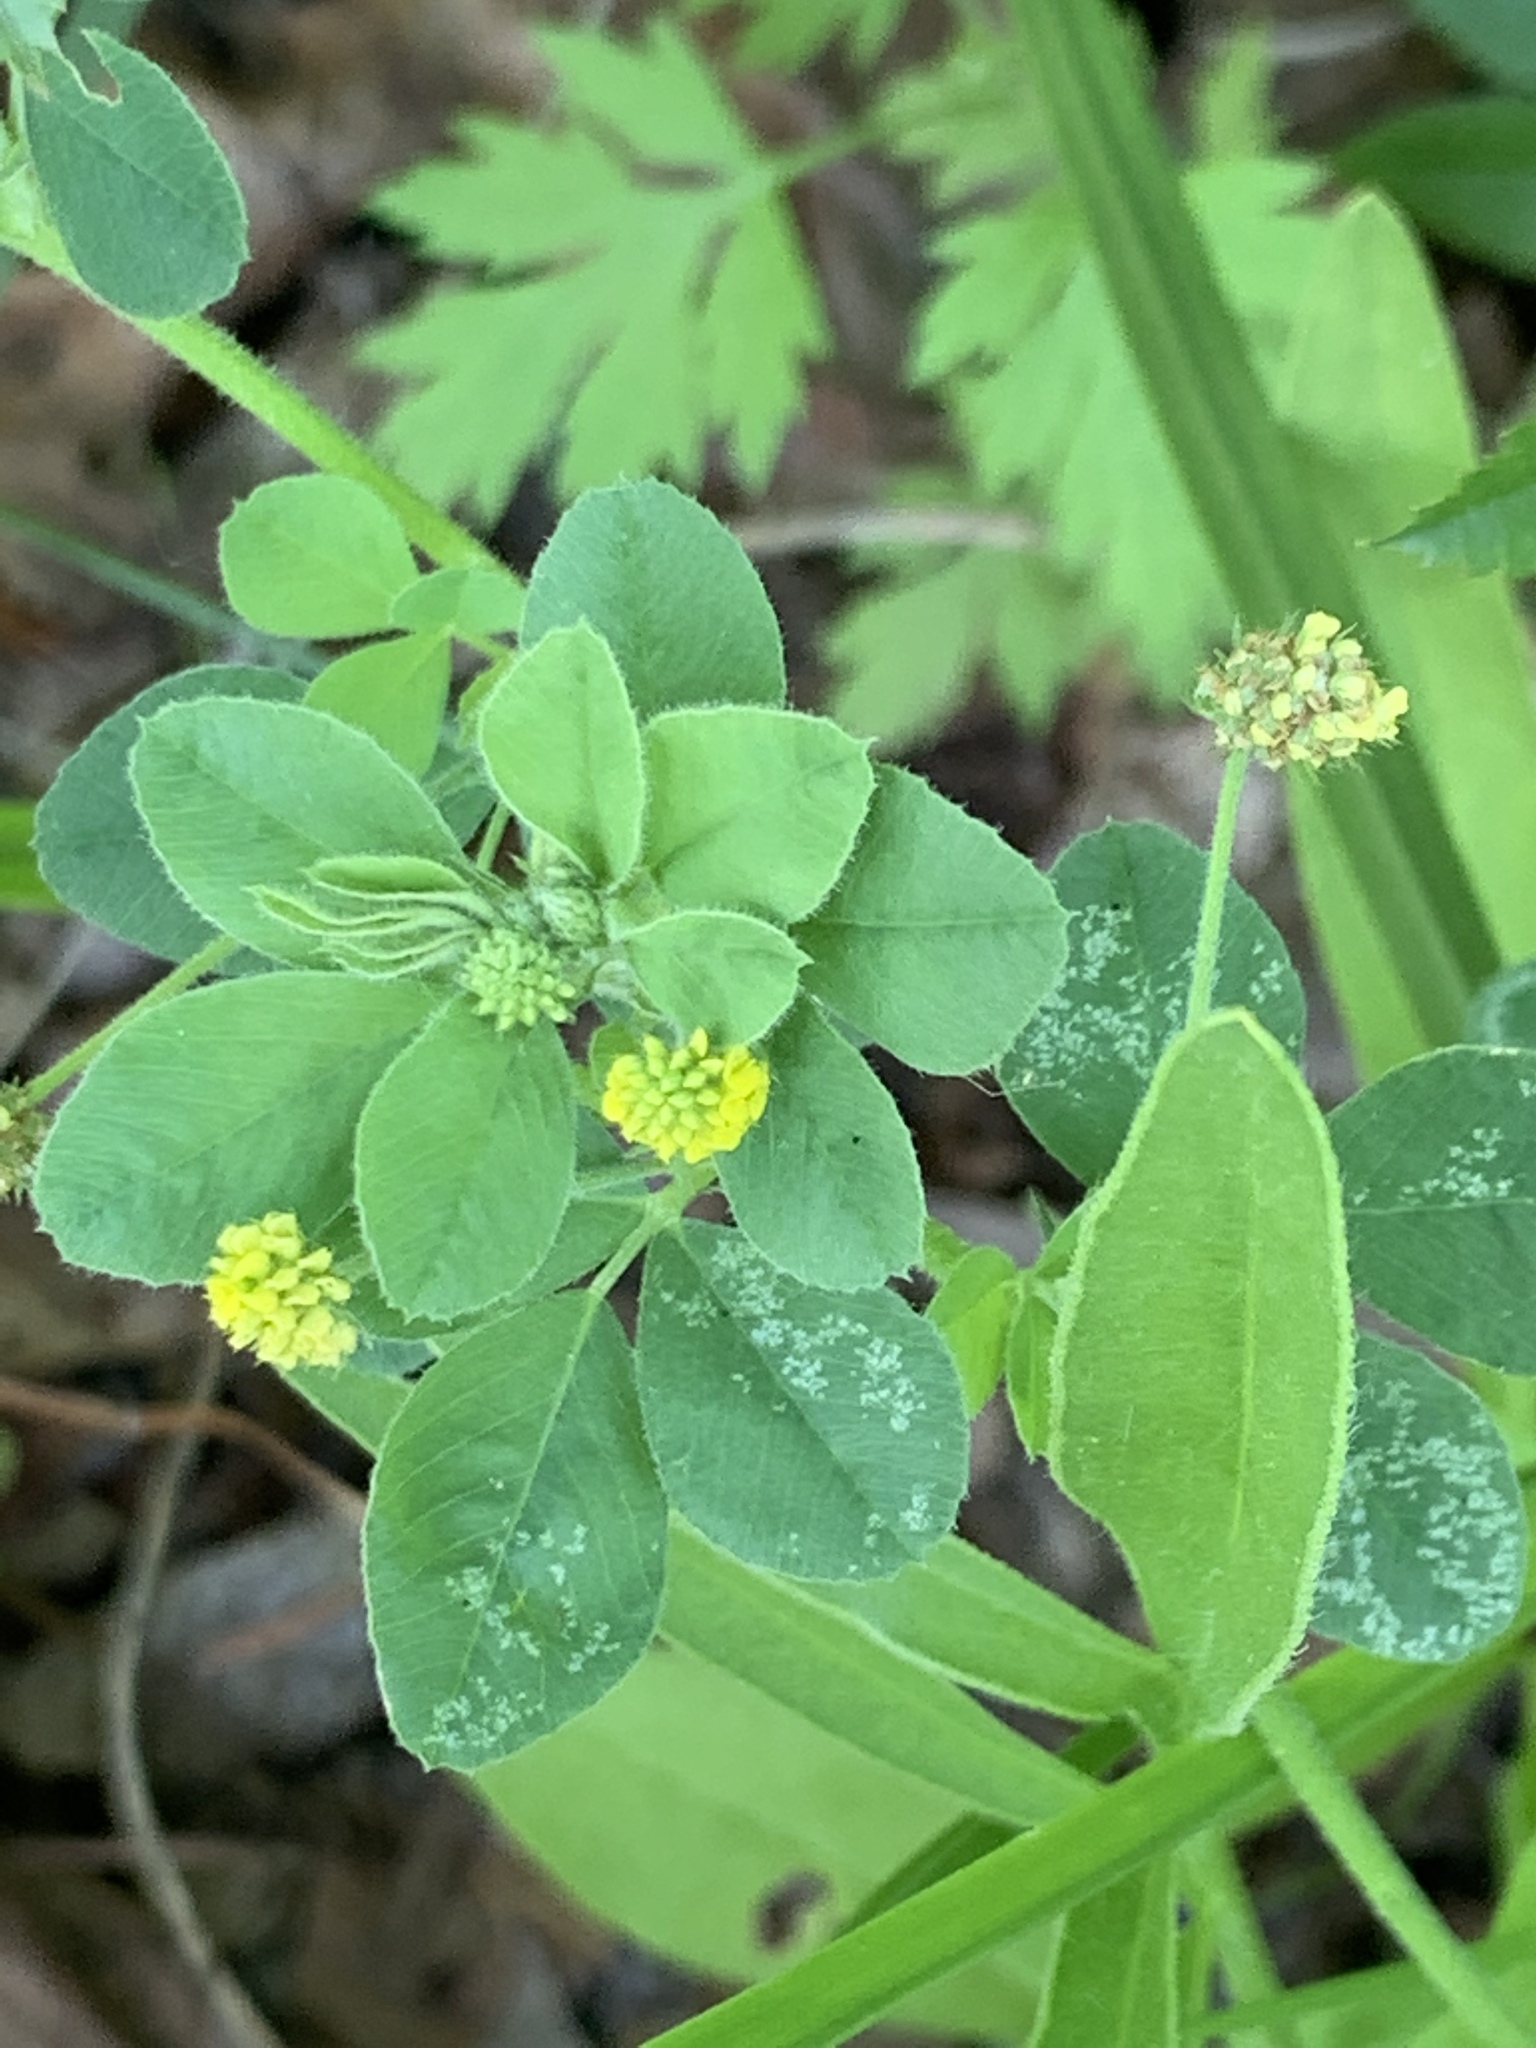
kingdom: Plantae
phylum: Tracheophyta
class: Magnoliopsida
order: Fabales
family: Fabaceae
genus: Medicago
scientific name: Medicago lupulina
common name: Black medick
